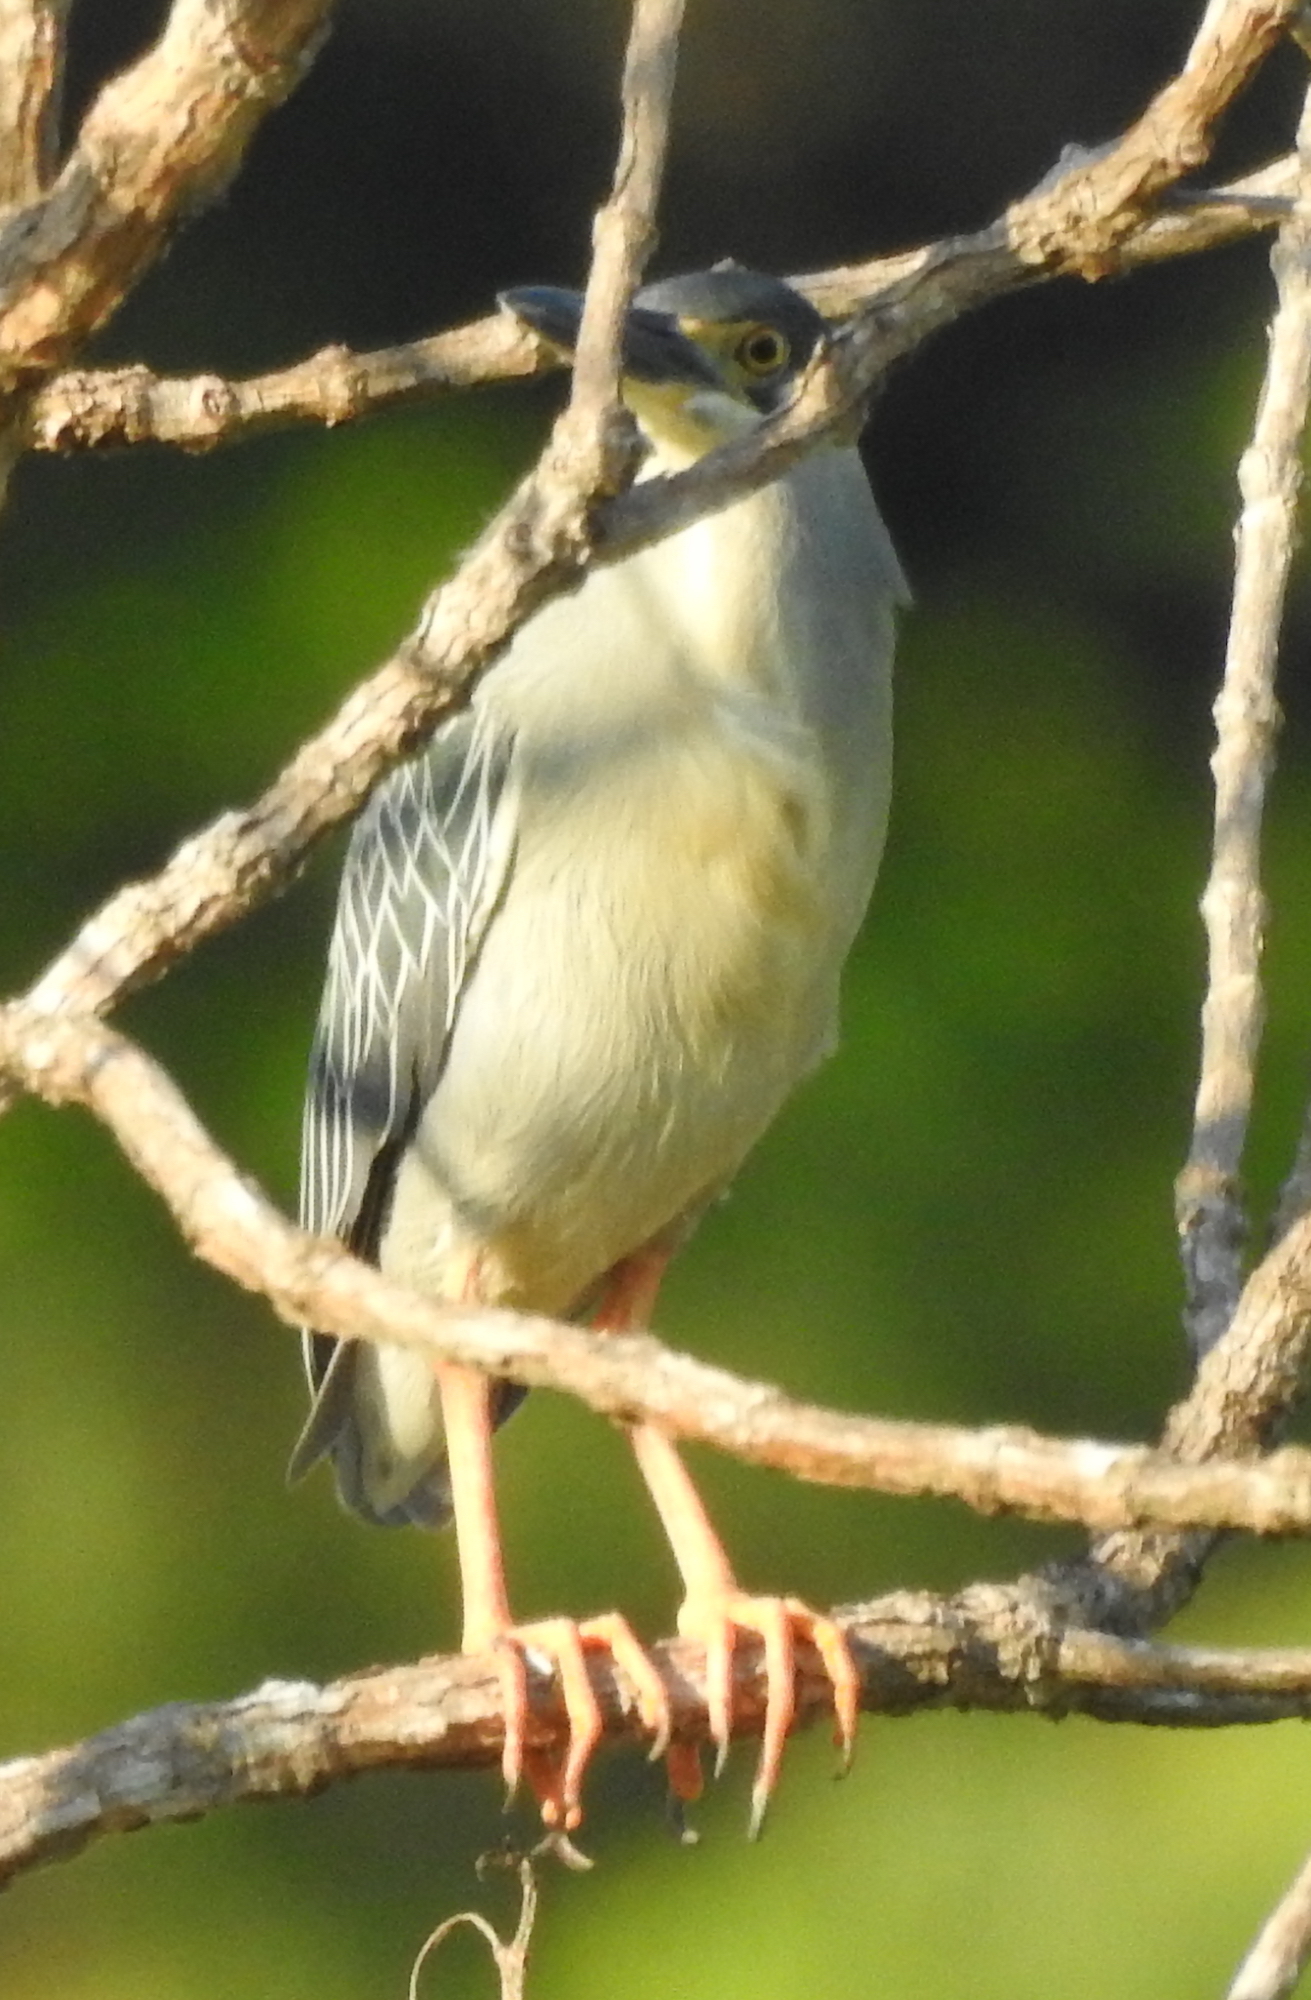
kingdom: Animalia
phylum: Chordata
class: Aves
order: Pelecaniformes
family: Ardeidae
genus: Butorides
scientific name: Butorides striata
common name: Striated heron
